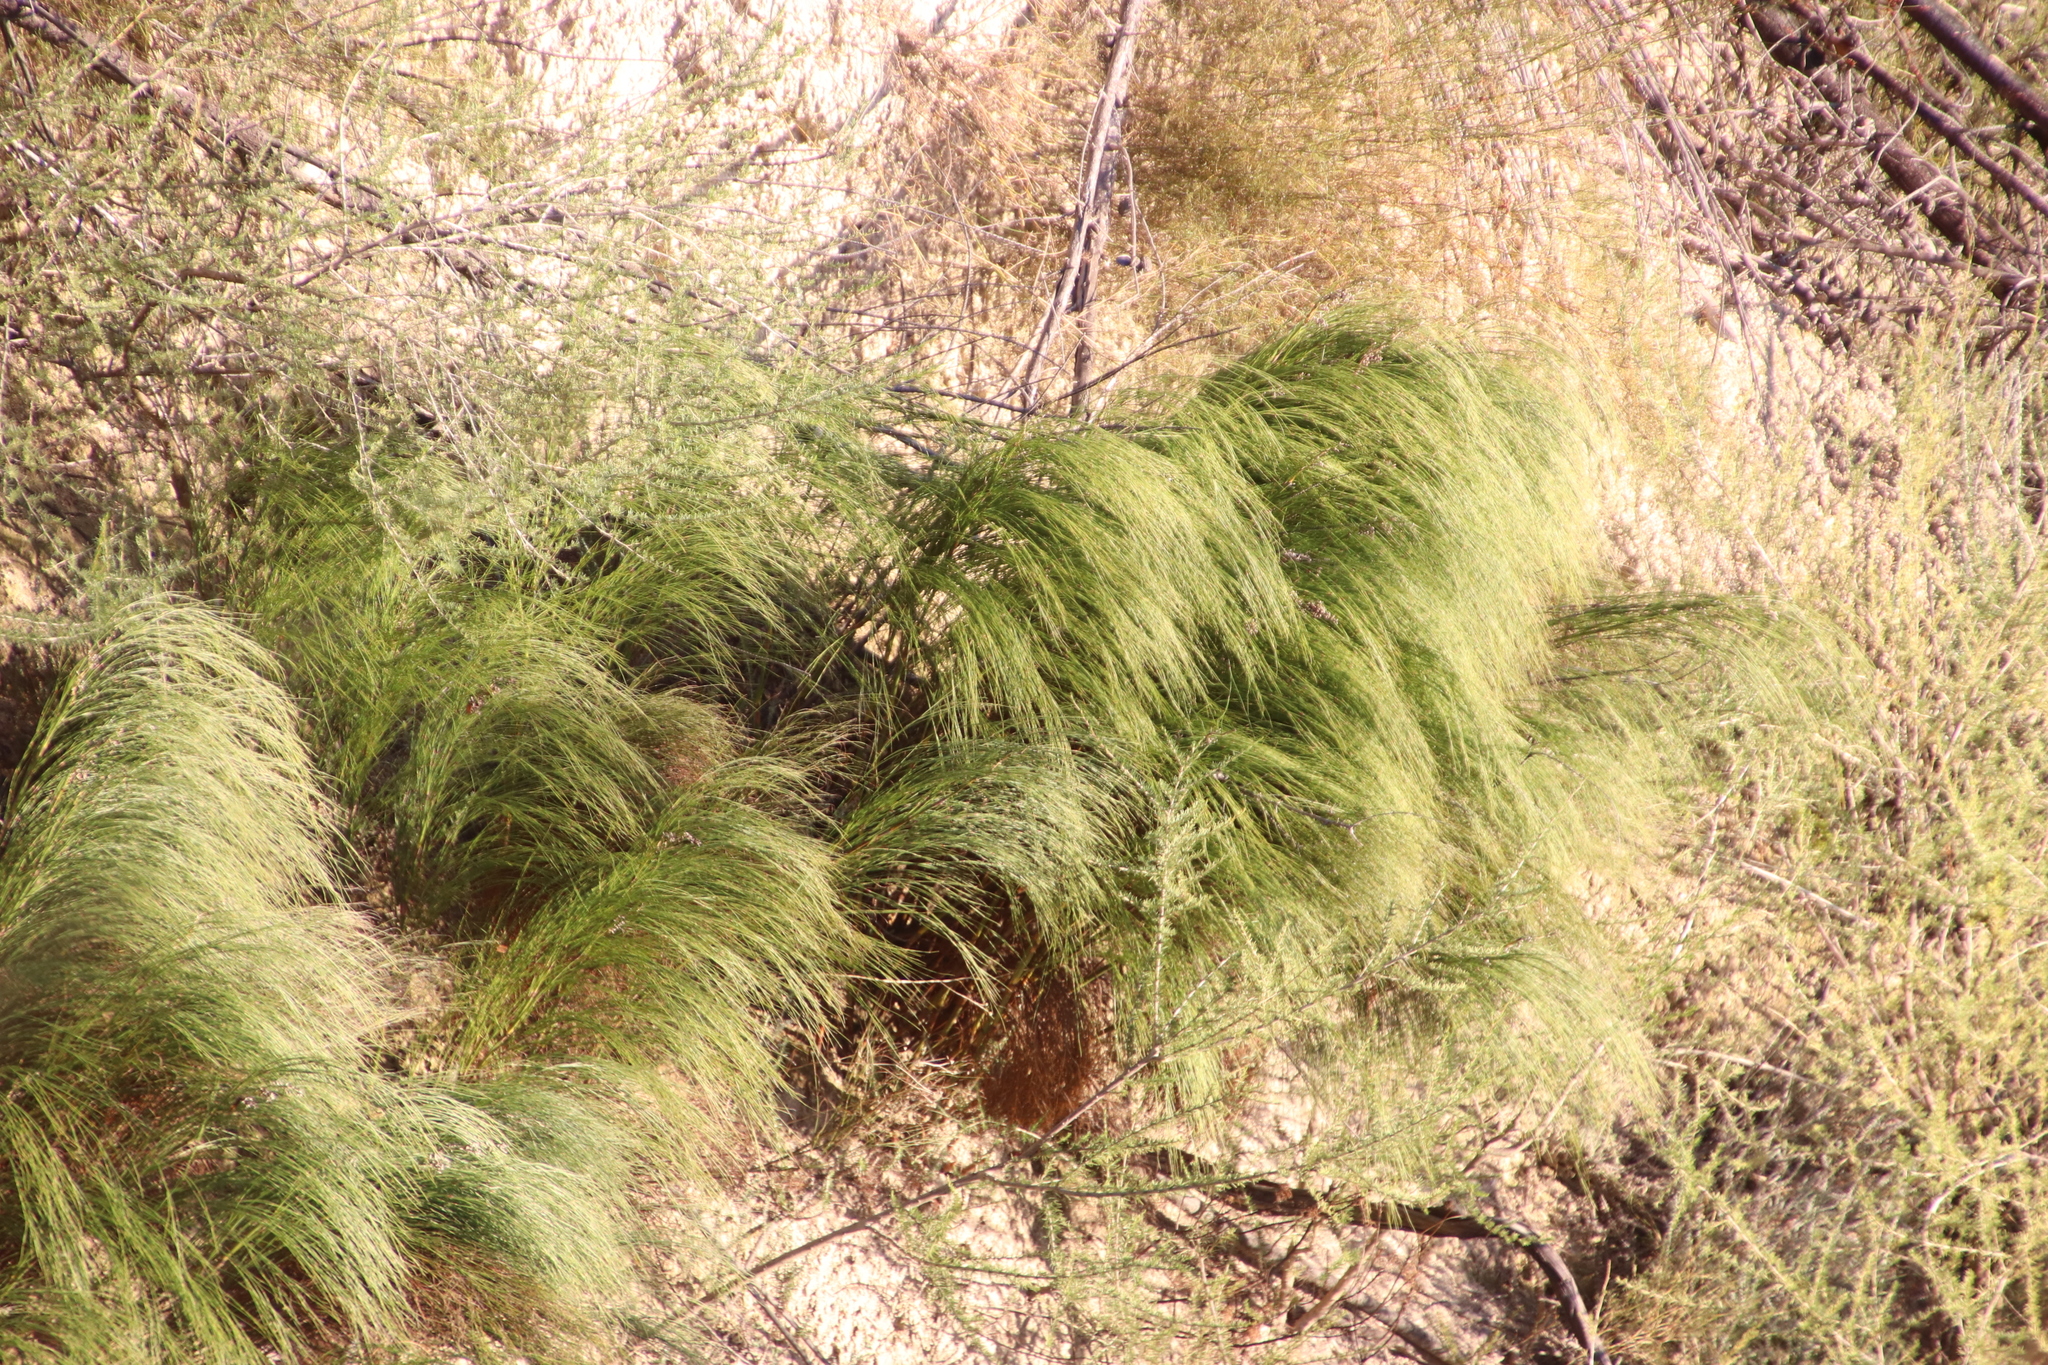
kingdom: Plantae
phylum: Tracheophyta
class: Liliopsida
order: Poales
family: Restionaceae
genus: Cannomois
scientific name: Cannomois virgata
